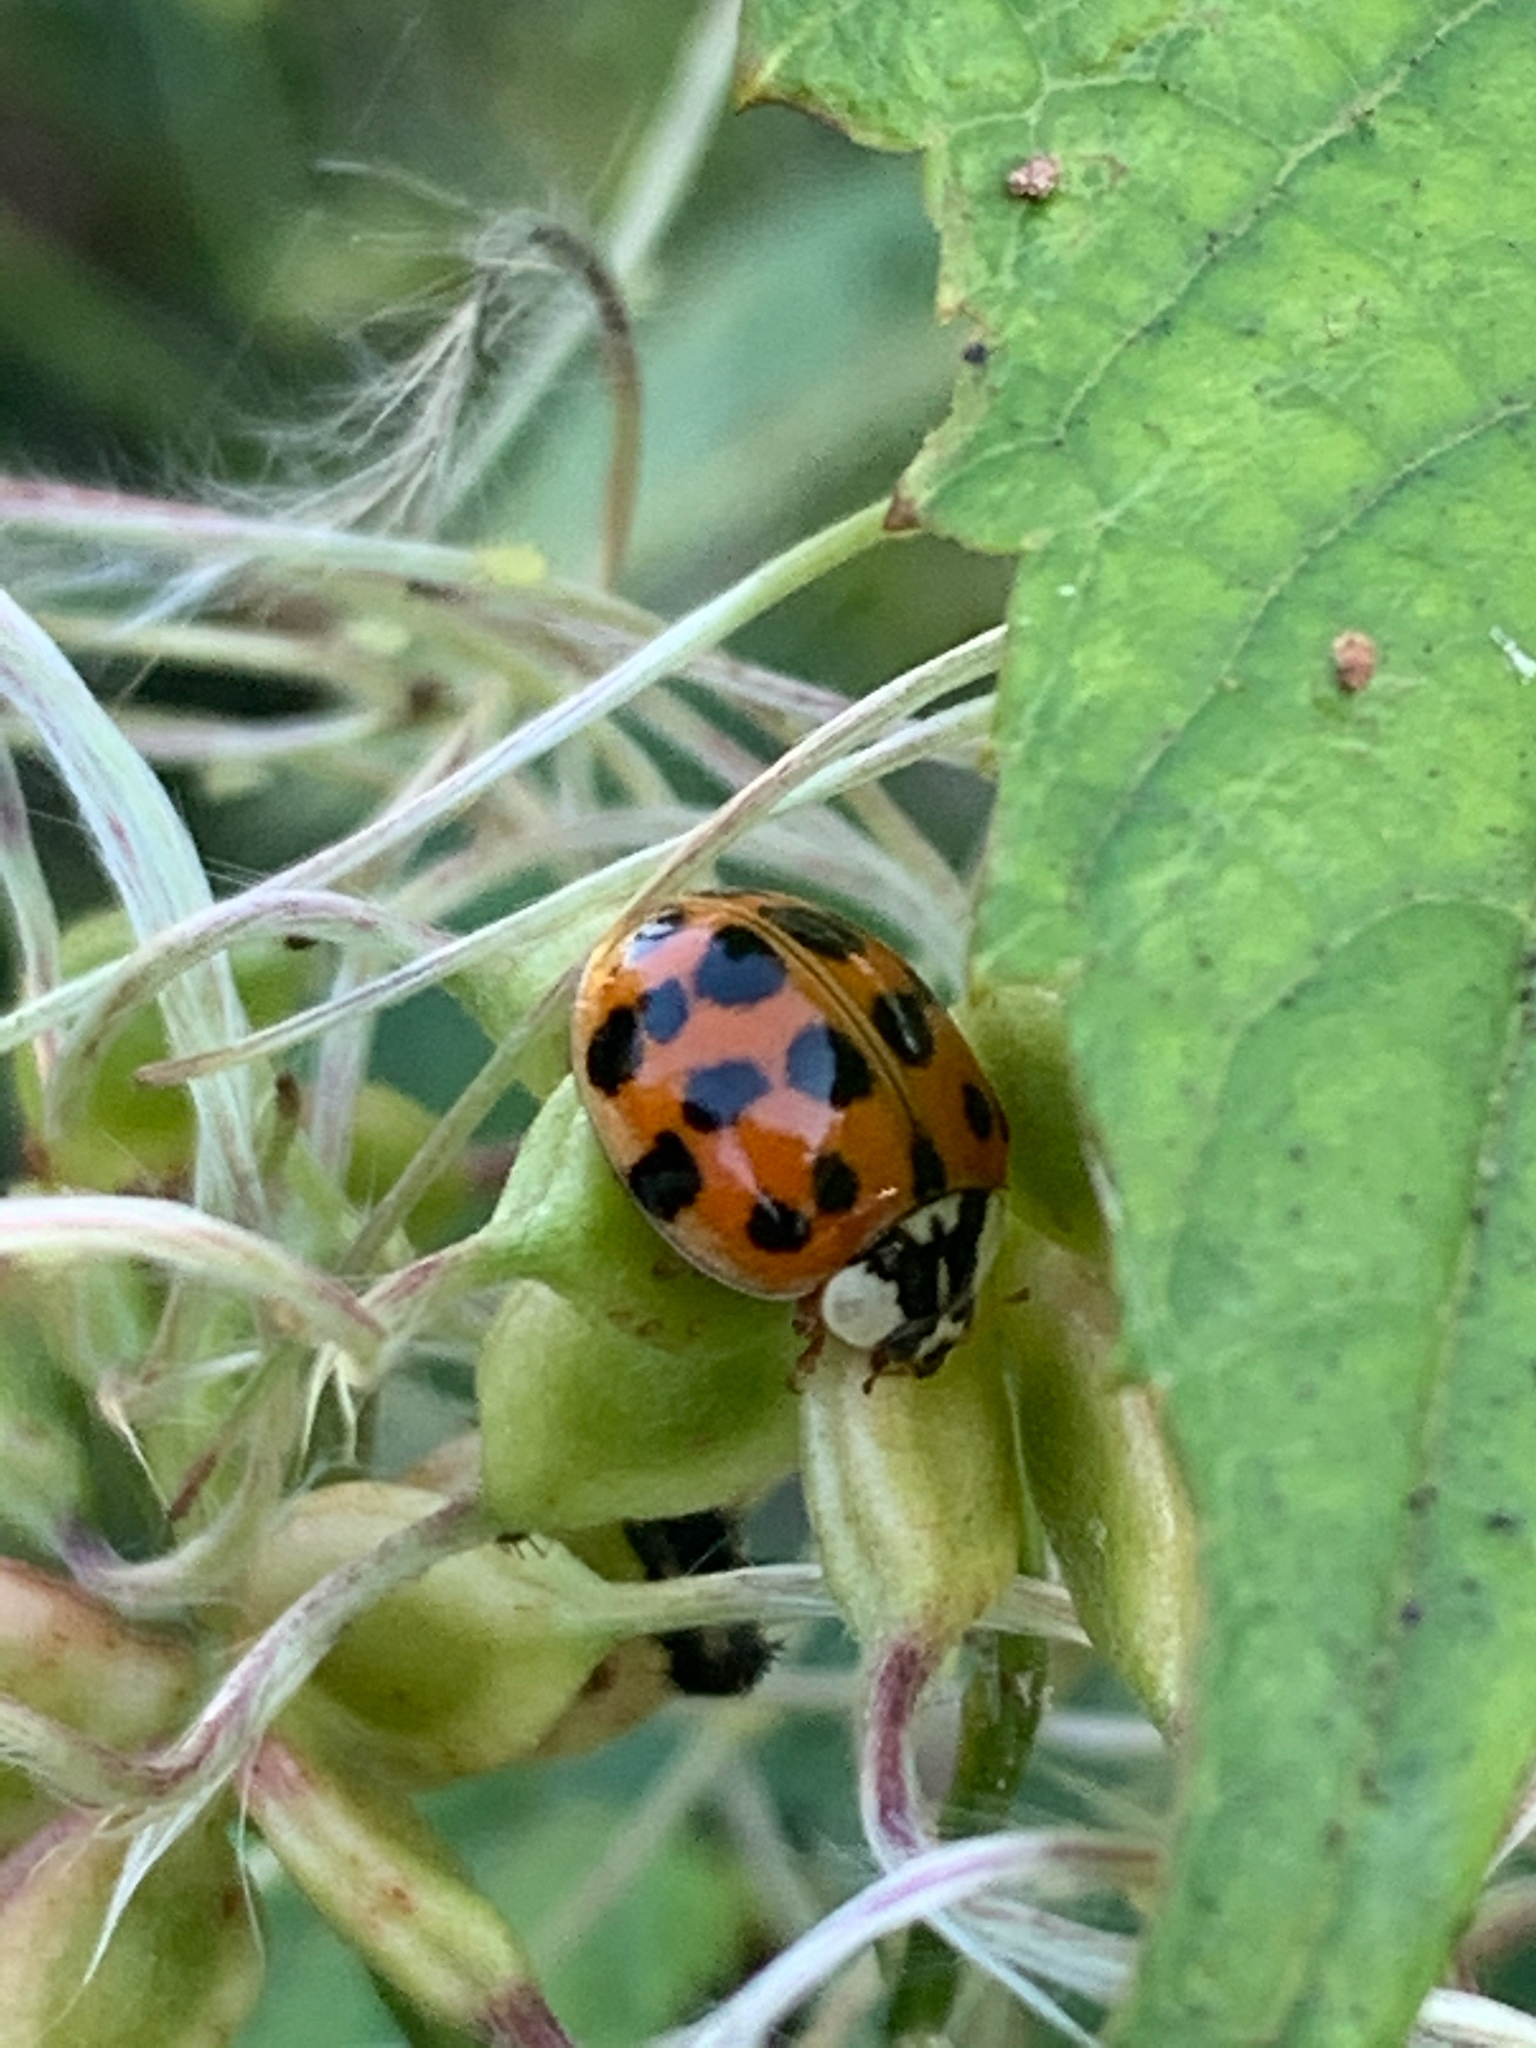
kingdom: Animalia
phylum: Arthropoda
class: Insecta
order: Coleoptera
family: Coccinellidae
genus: Harmonia
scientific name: Harmonia axyridis
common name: Harlequin ladybird
